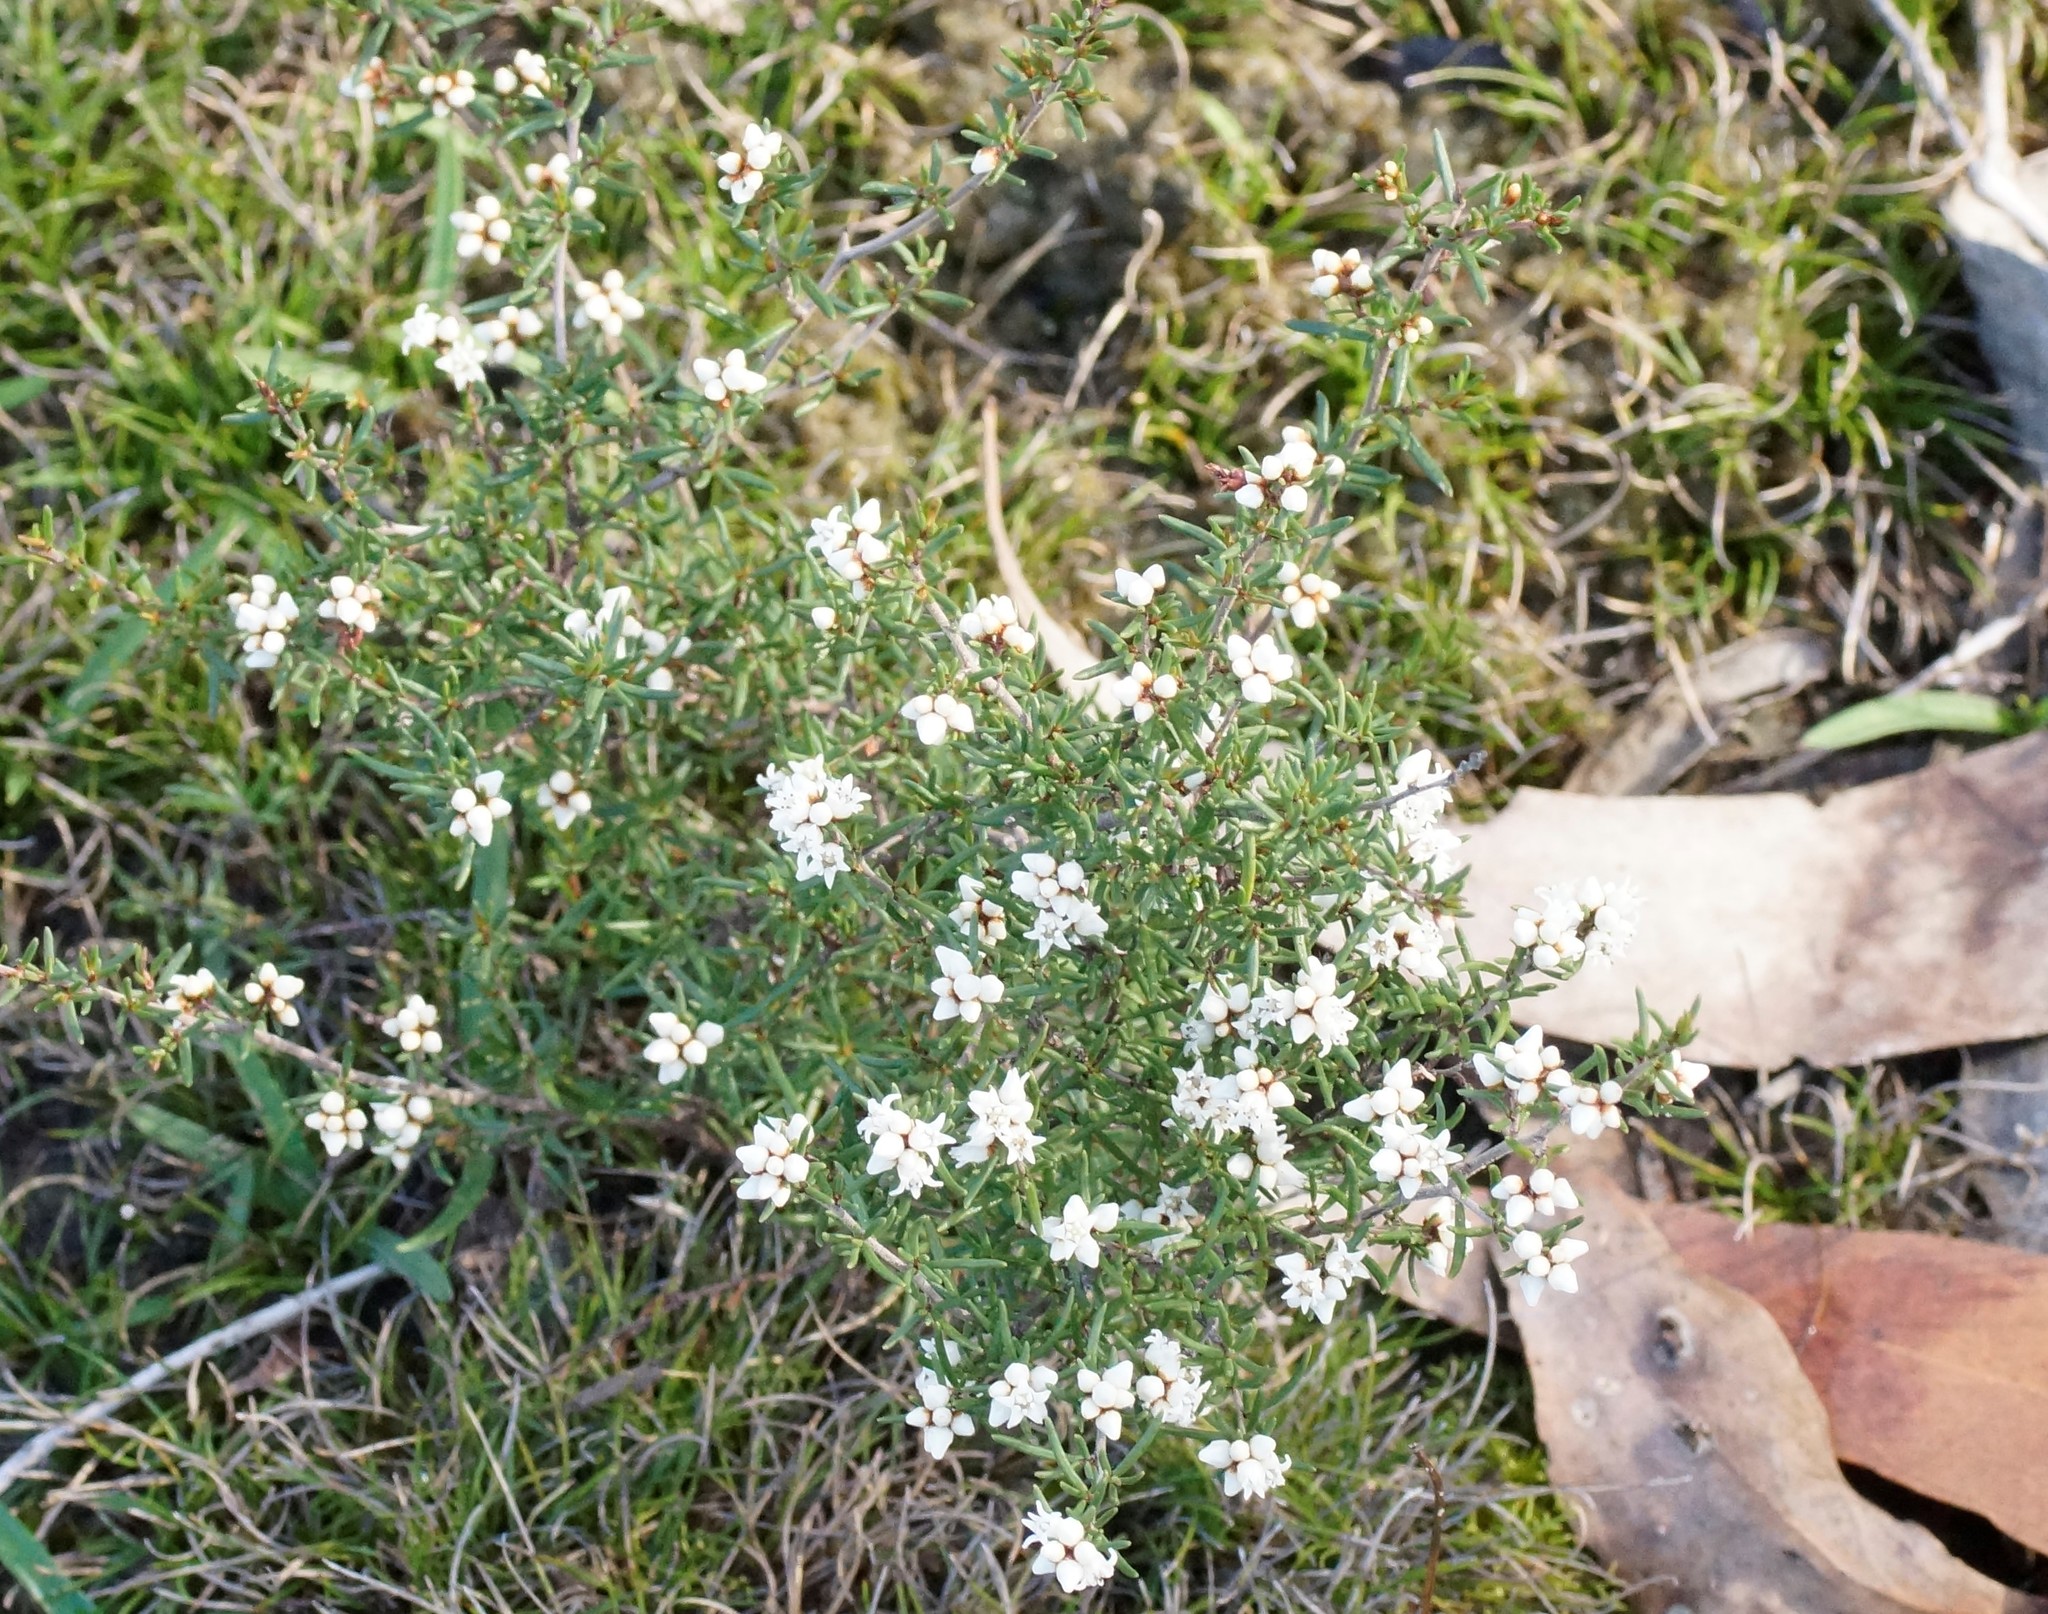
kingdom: Plantae
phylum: Tracheophyta
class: Magnoliopsida
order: Rosales
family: Rhamnaceae
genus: Cryptandra
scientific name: Cryptandra tomentosa
